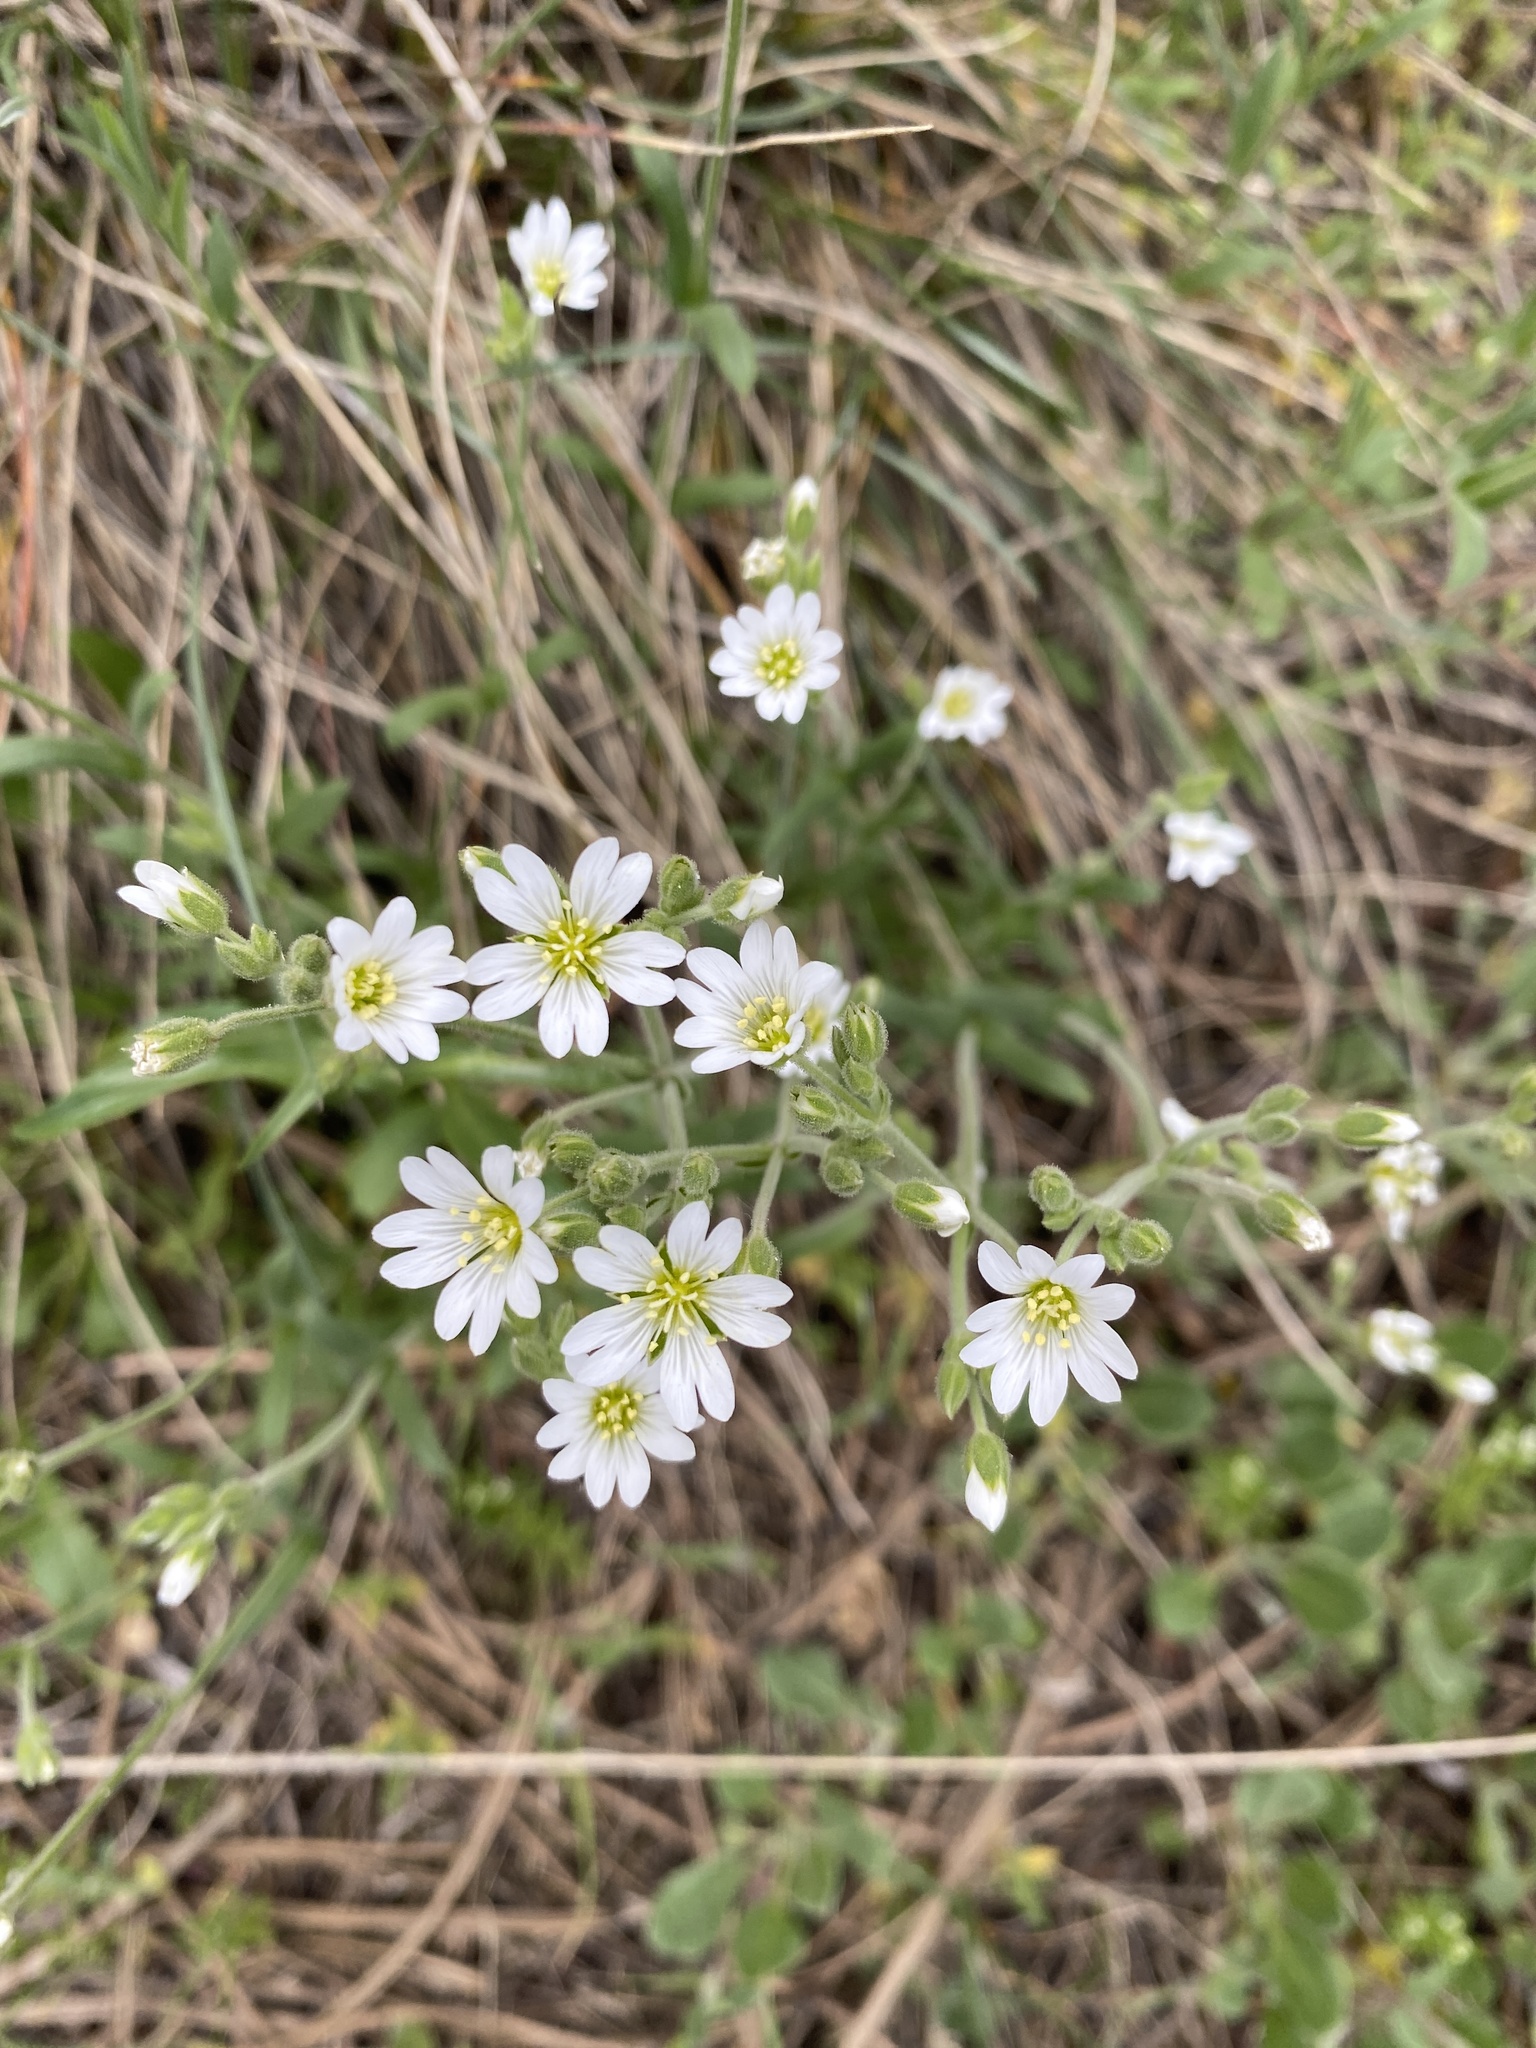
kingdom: Plantae
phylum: Tracheophyta
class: Magnoliopsida
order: Caryophyllales
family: Caryophyllaceae
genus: Cerastium
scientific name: Cerastium arvense
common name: Field mouse-ear
